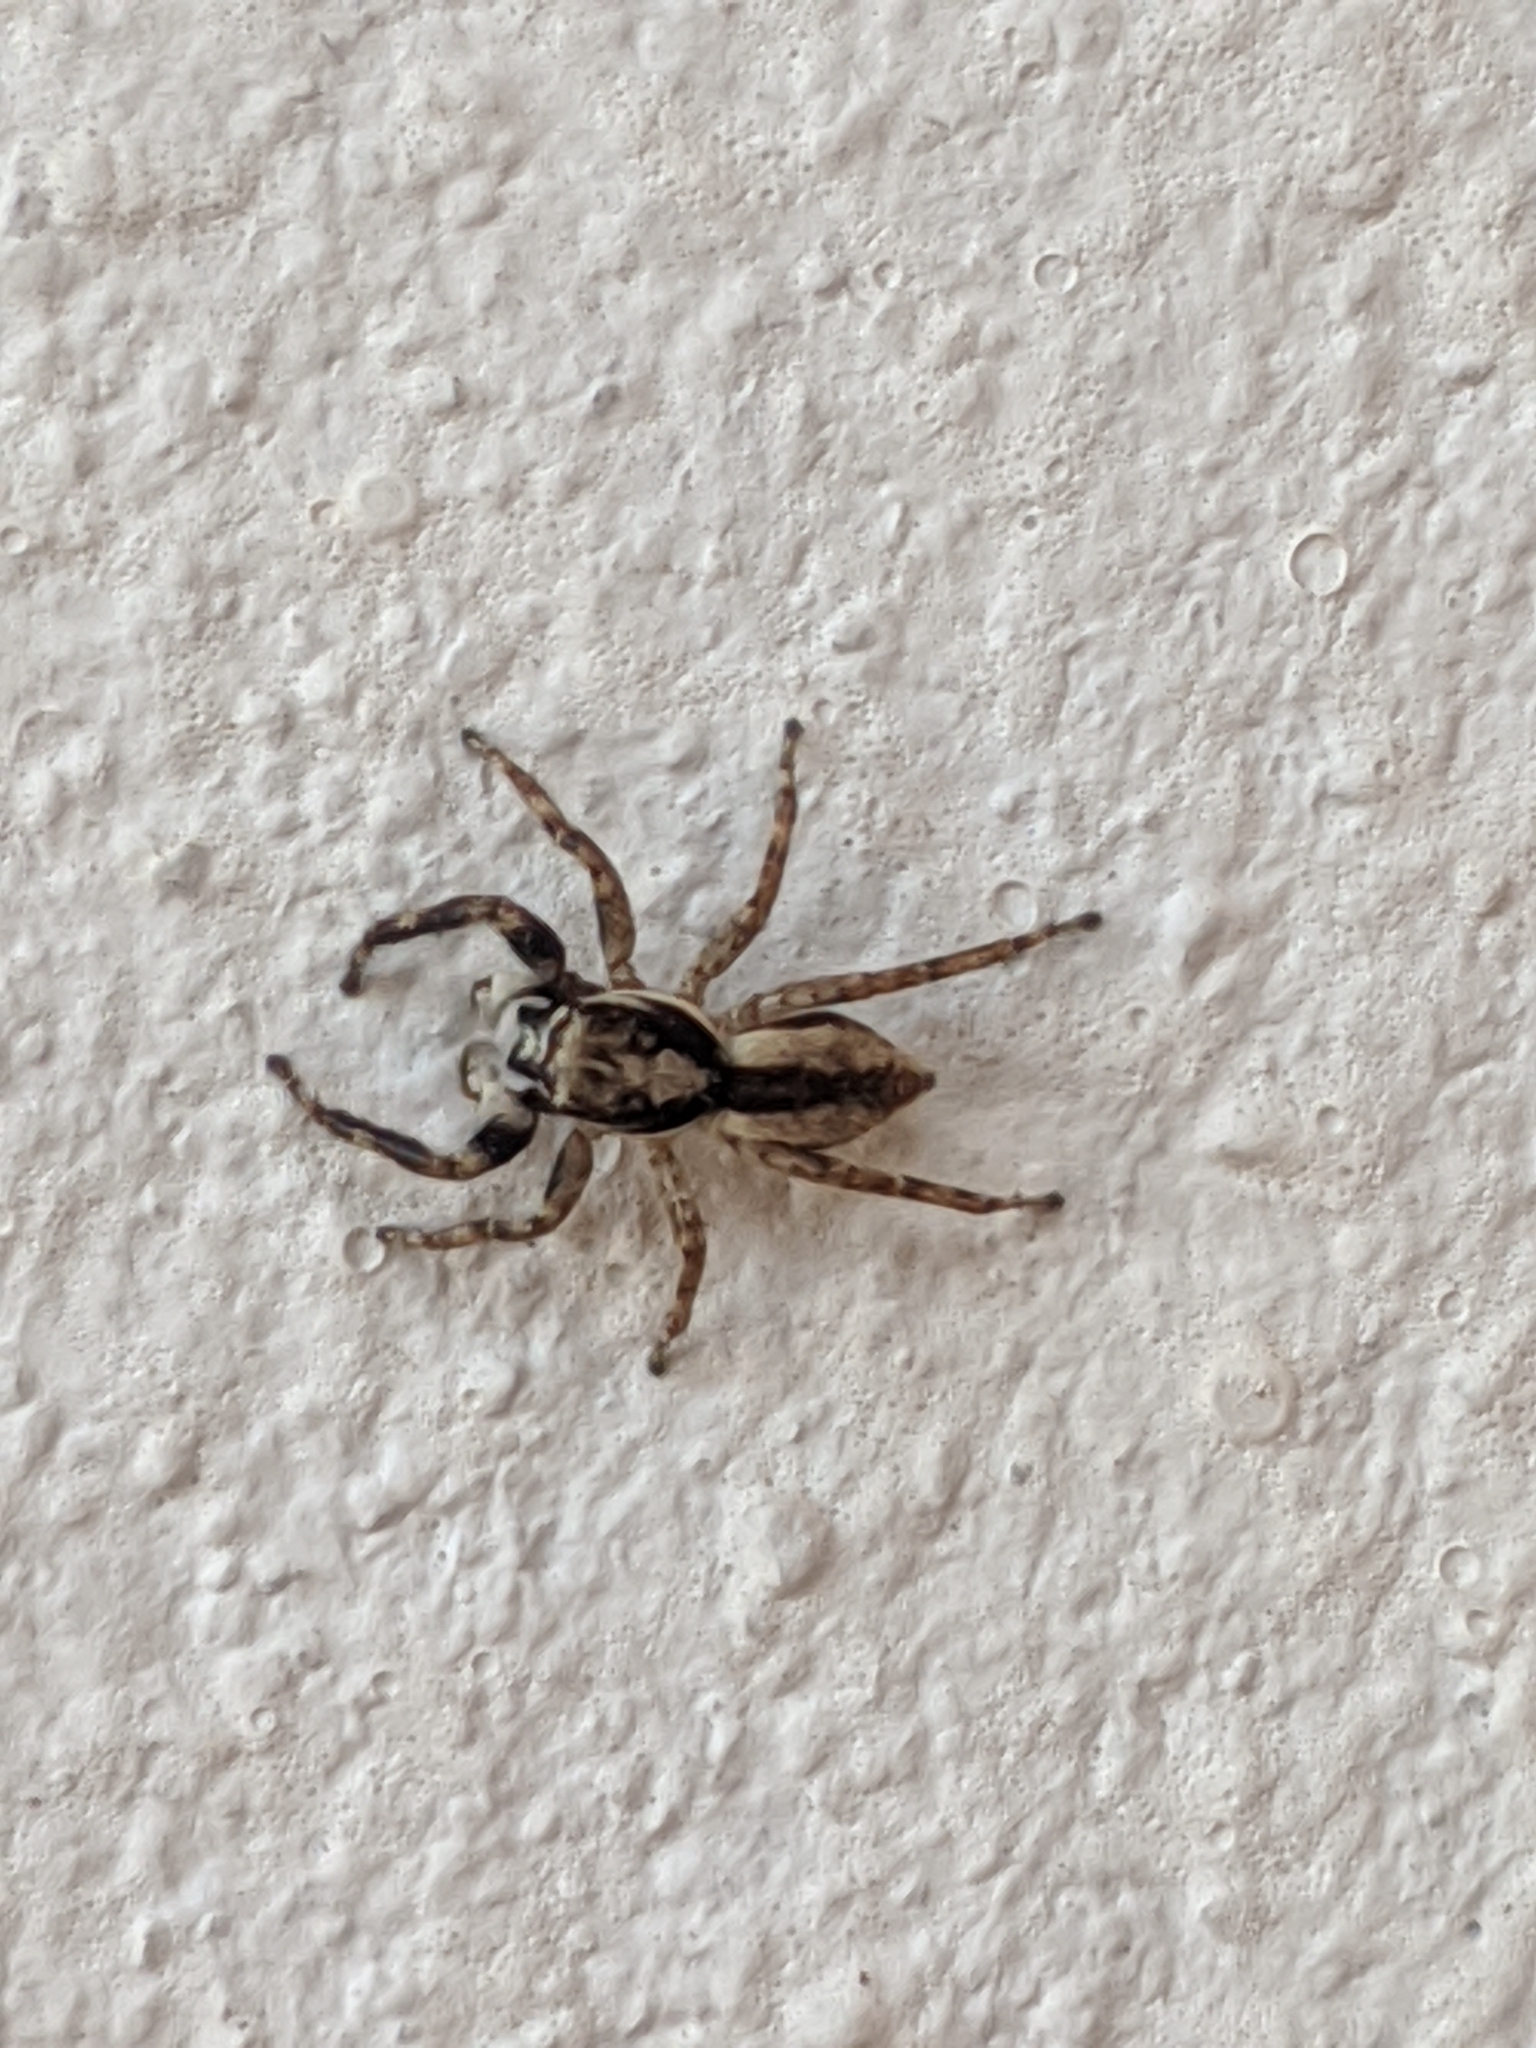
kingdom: Animalia
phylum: Arthropoda
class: Arachnida
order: Araneae
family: Salticidae
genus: Menemerus
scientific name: Menemerus bivittatus
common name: Gray wall jumper
